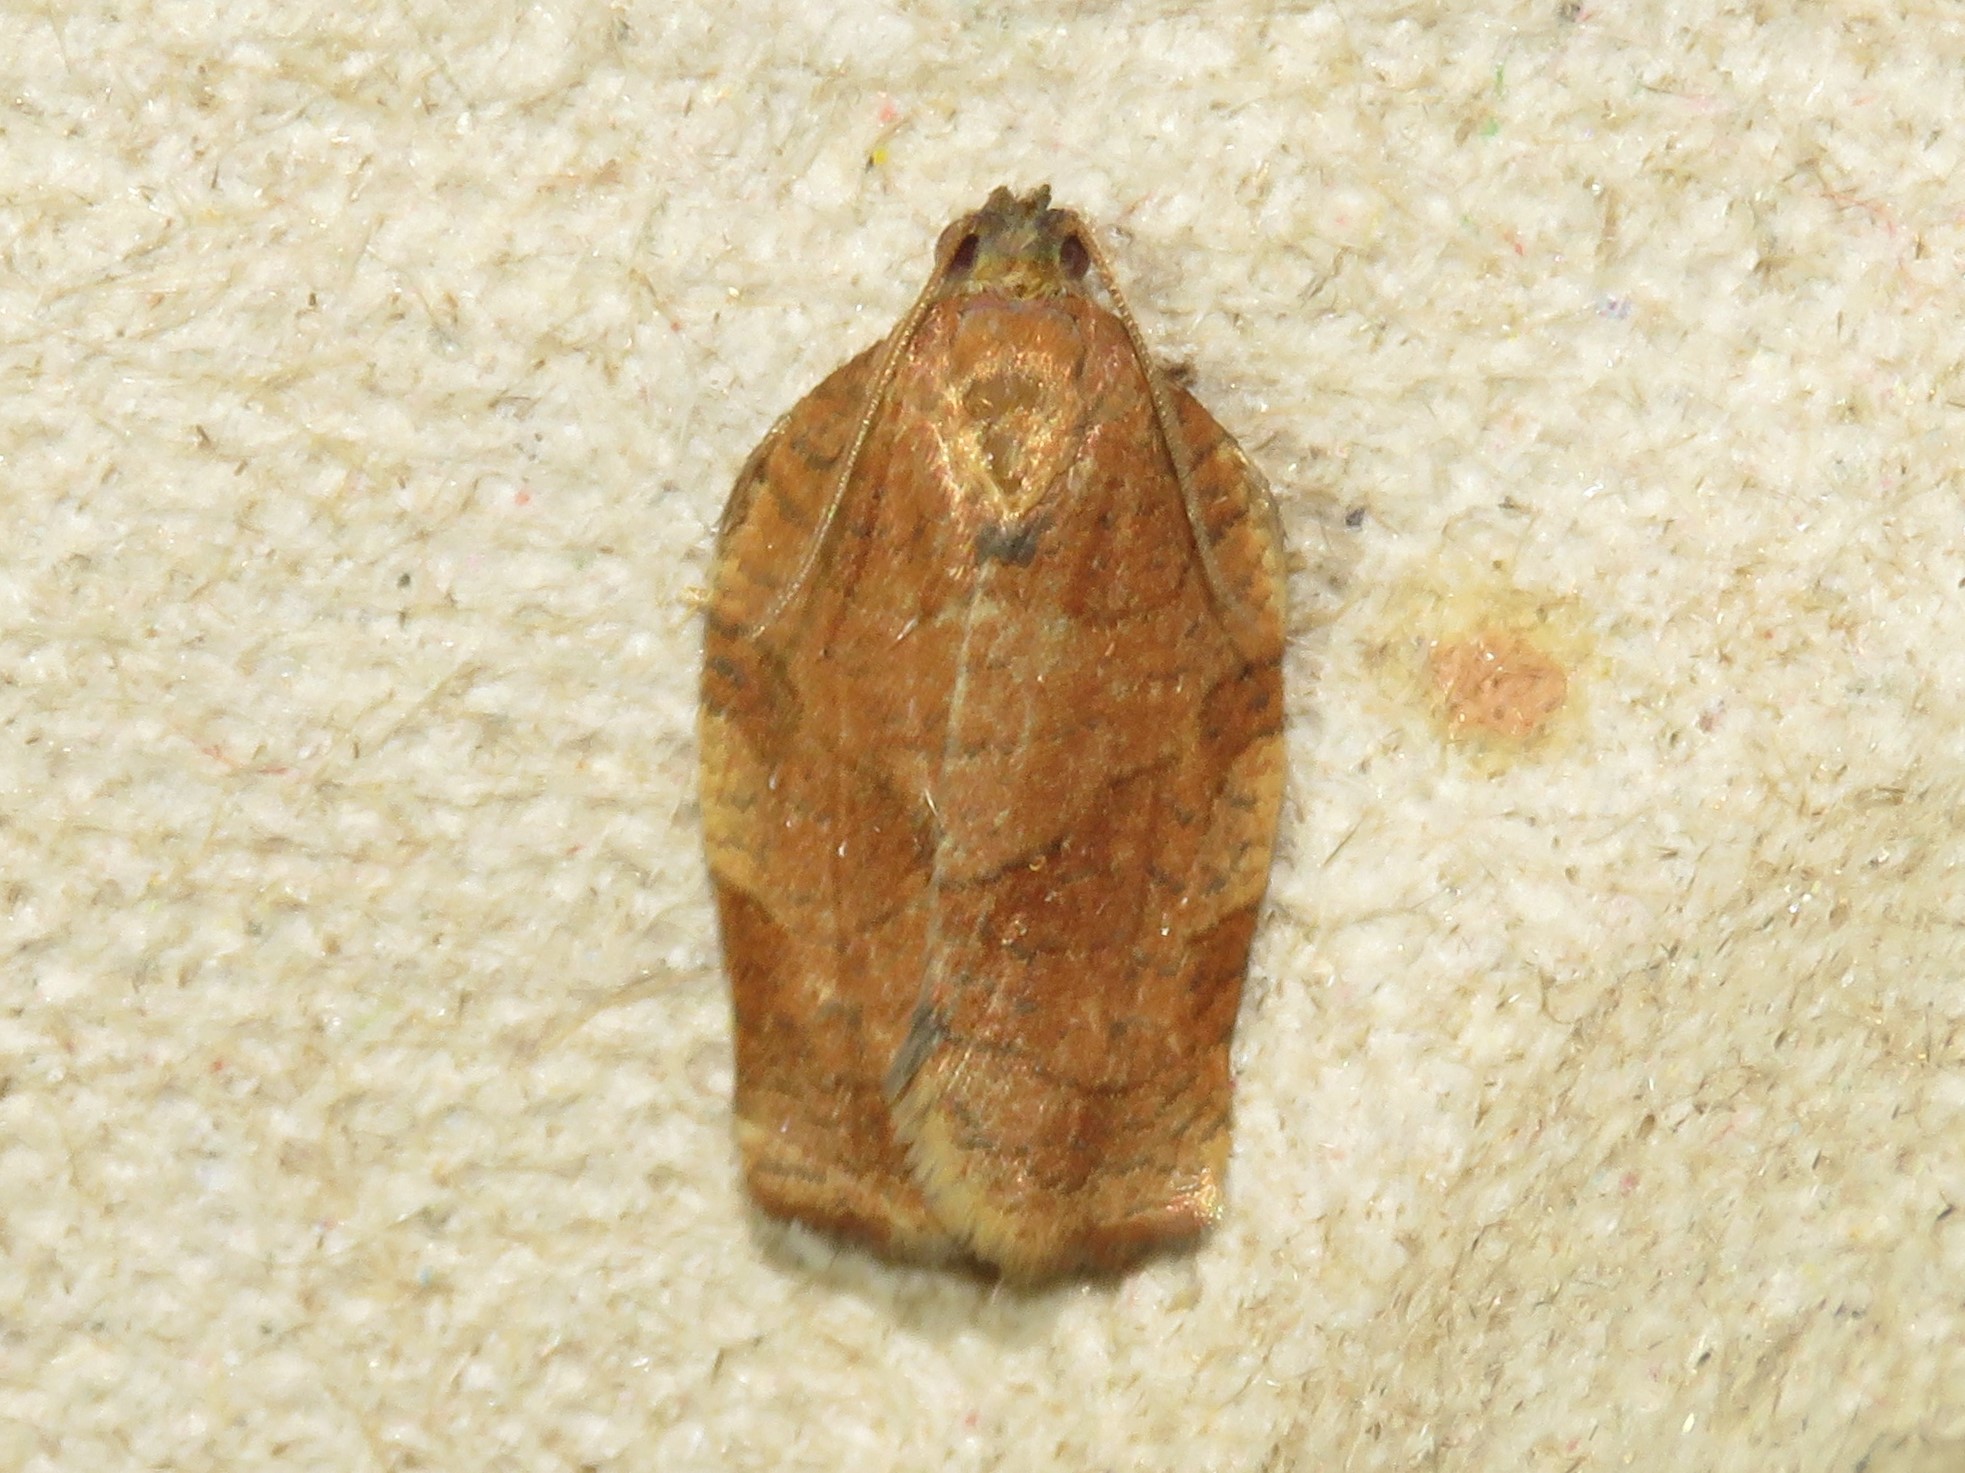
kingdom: Animalia
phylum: Arthropoda
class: Insecta
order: Lepidoptera
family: Tortricidae
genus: Choristoneura
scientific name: Choristoneura rosaceana
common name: Oblique-banded leafroller moth
